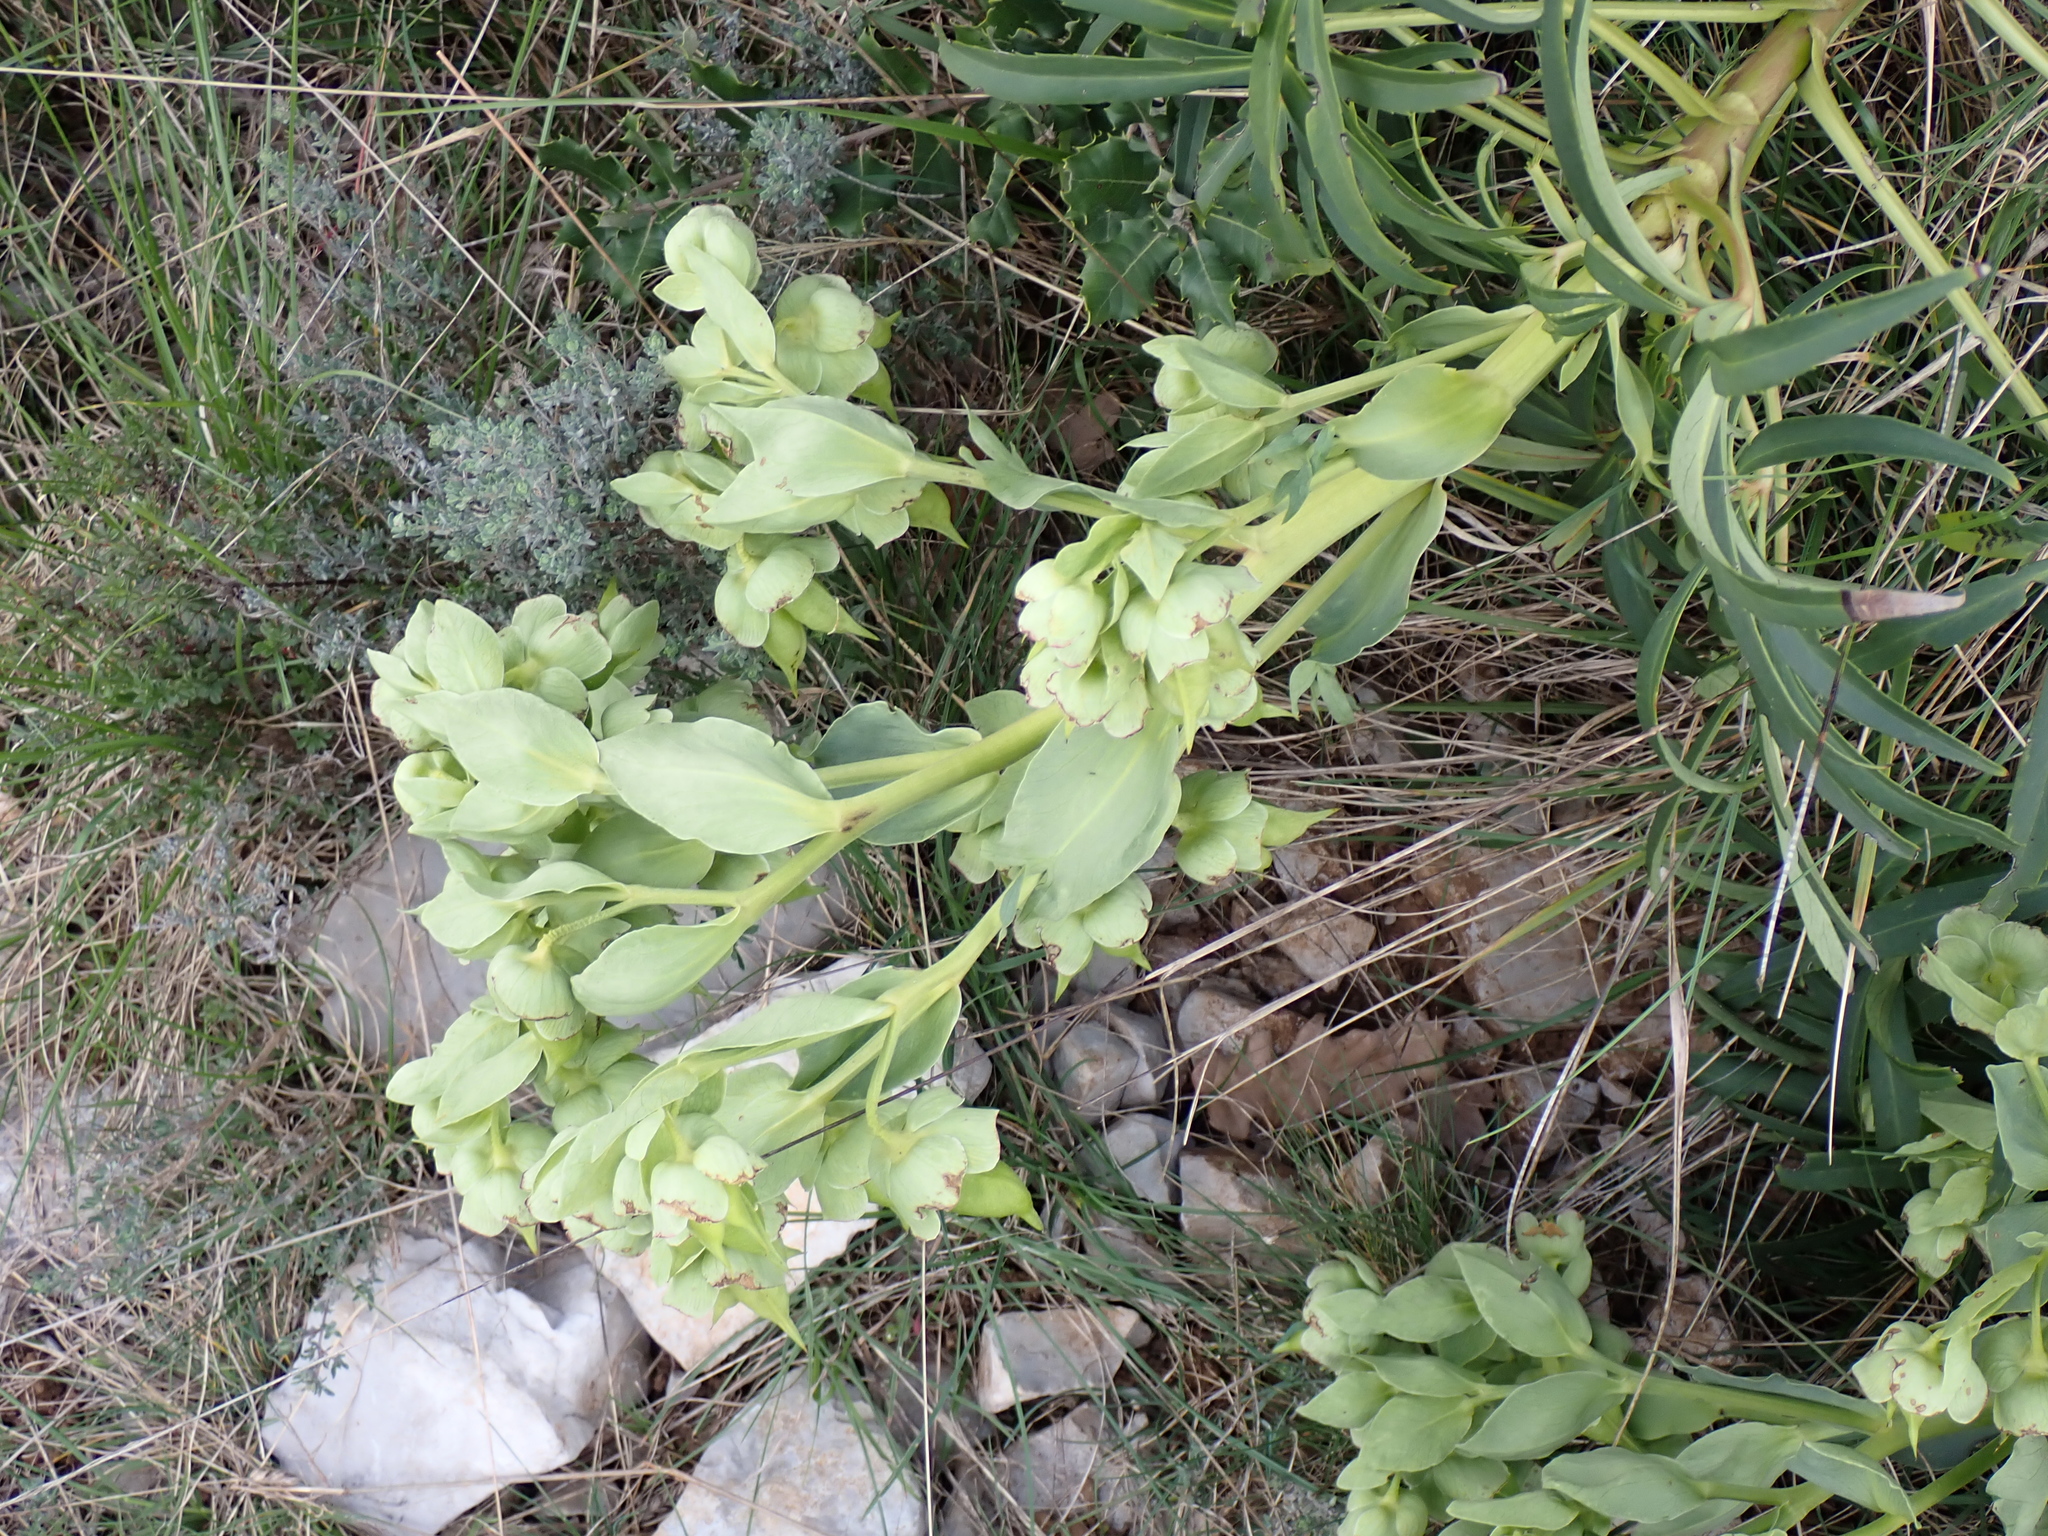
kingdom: Plantae
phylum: Tracheophyta
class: Magnoliopsida
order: Ranunculales
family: Ranunculaceae
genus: Helleborus
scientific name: Helleborus foetidus
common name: Stinking hellebore
